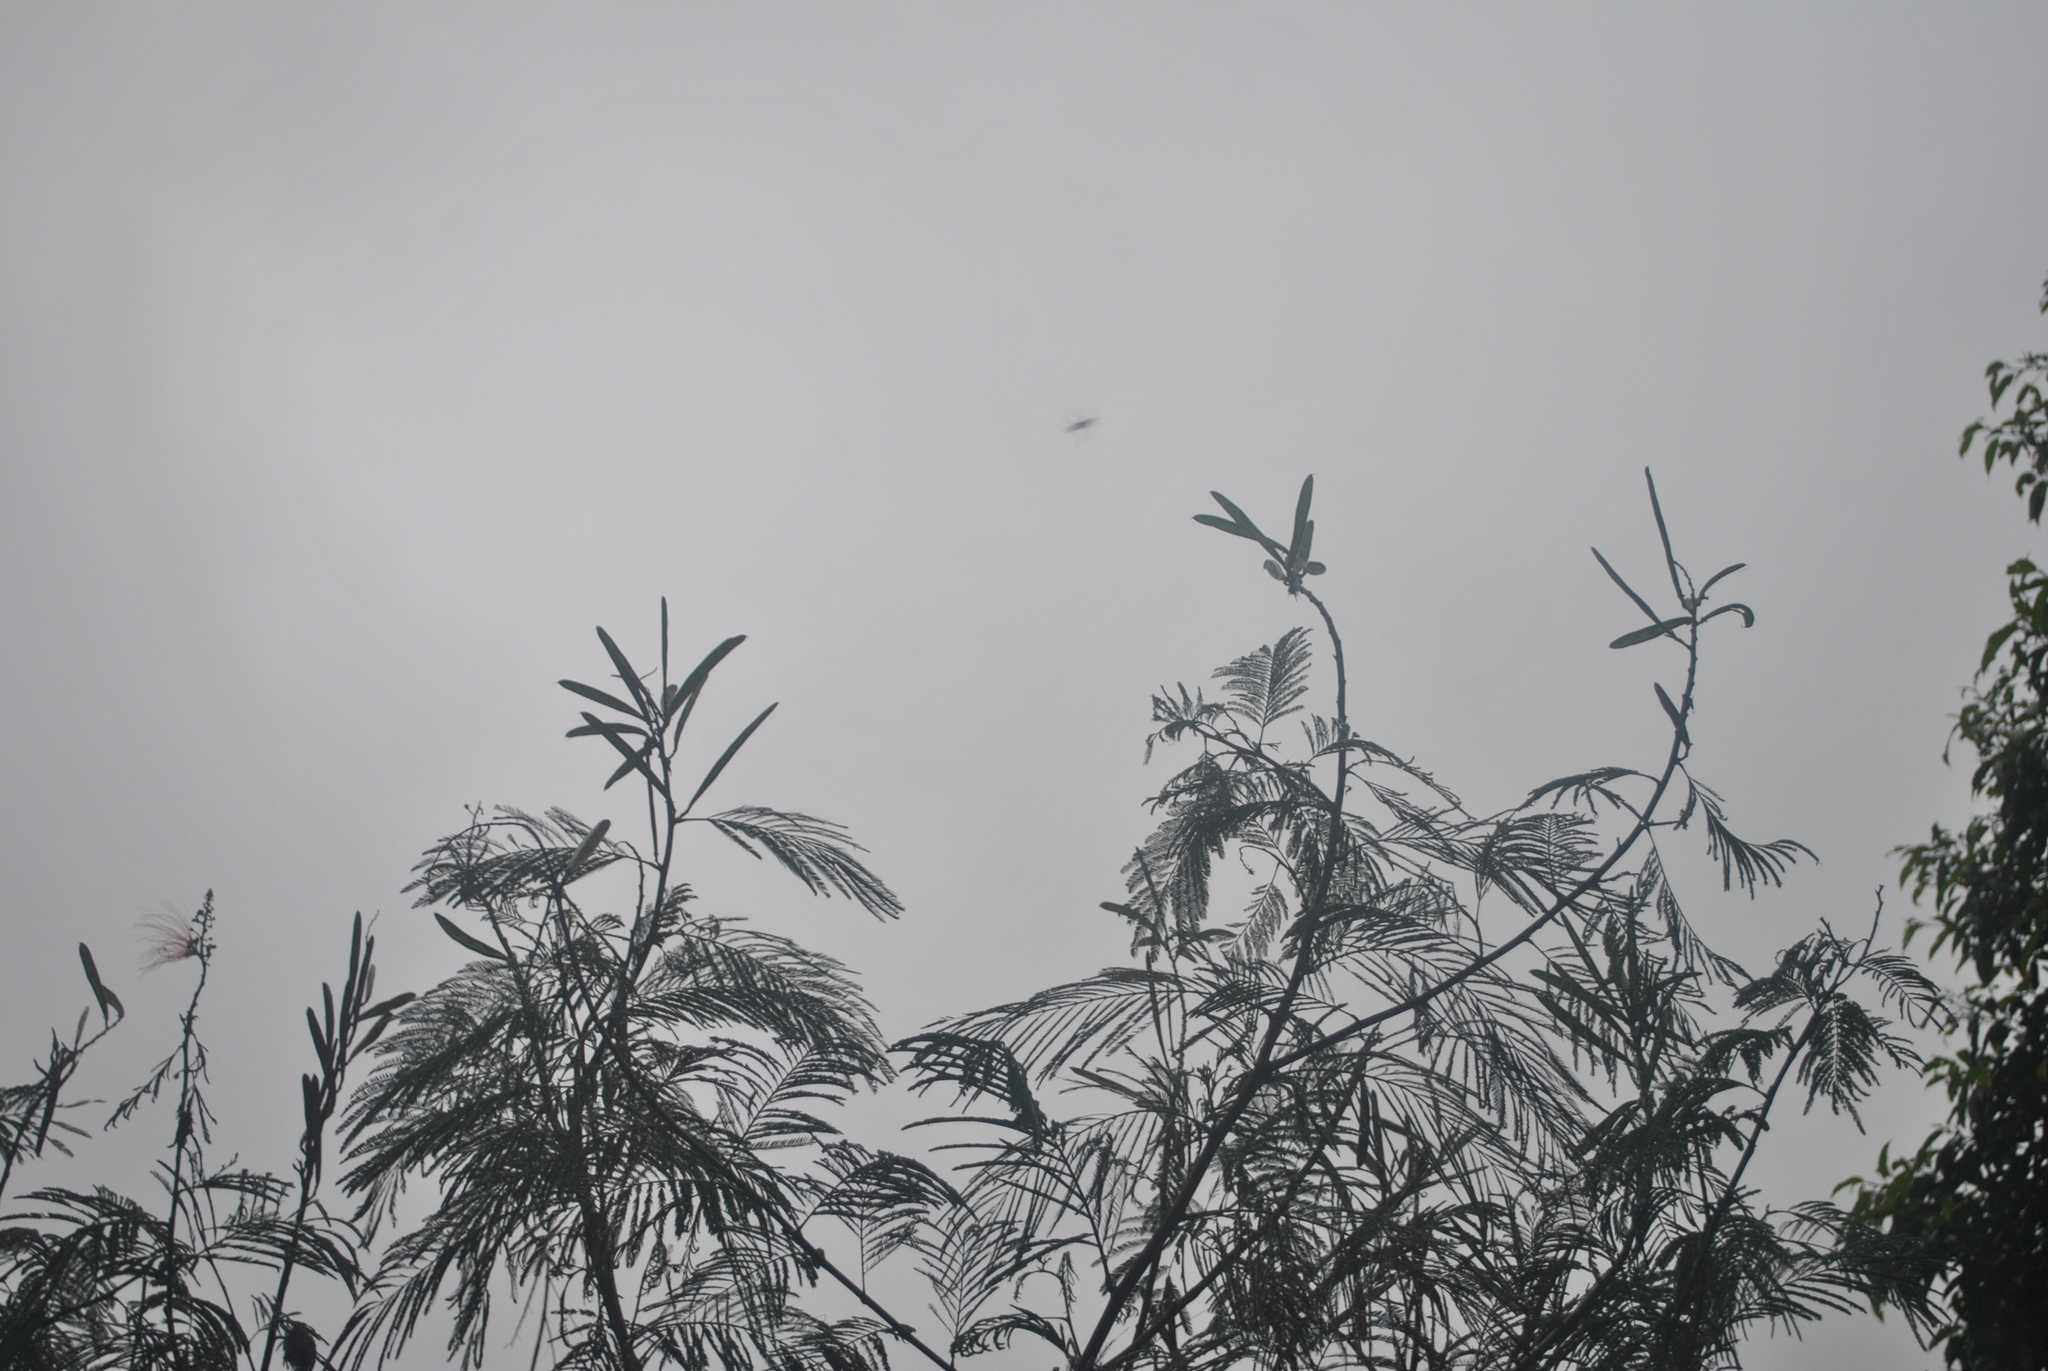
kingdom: Plantae
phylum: Tracheophyta
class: Magnoliopsida
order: Fabales
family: Fabaceae
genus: Calliandra
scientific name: Calliandra houstoniana
